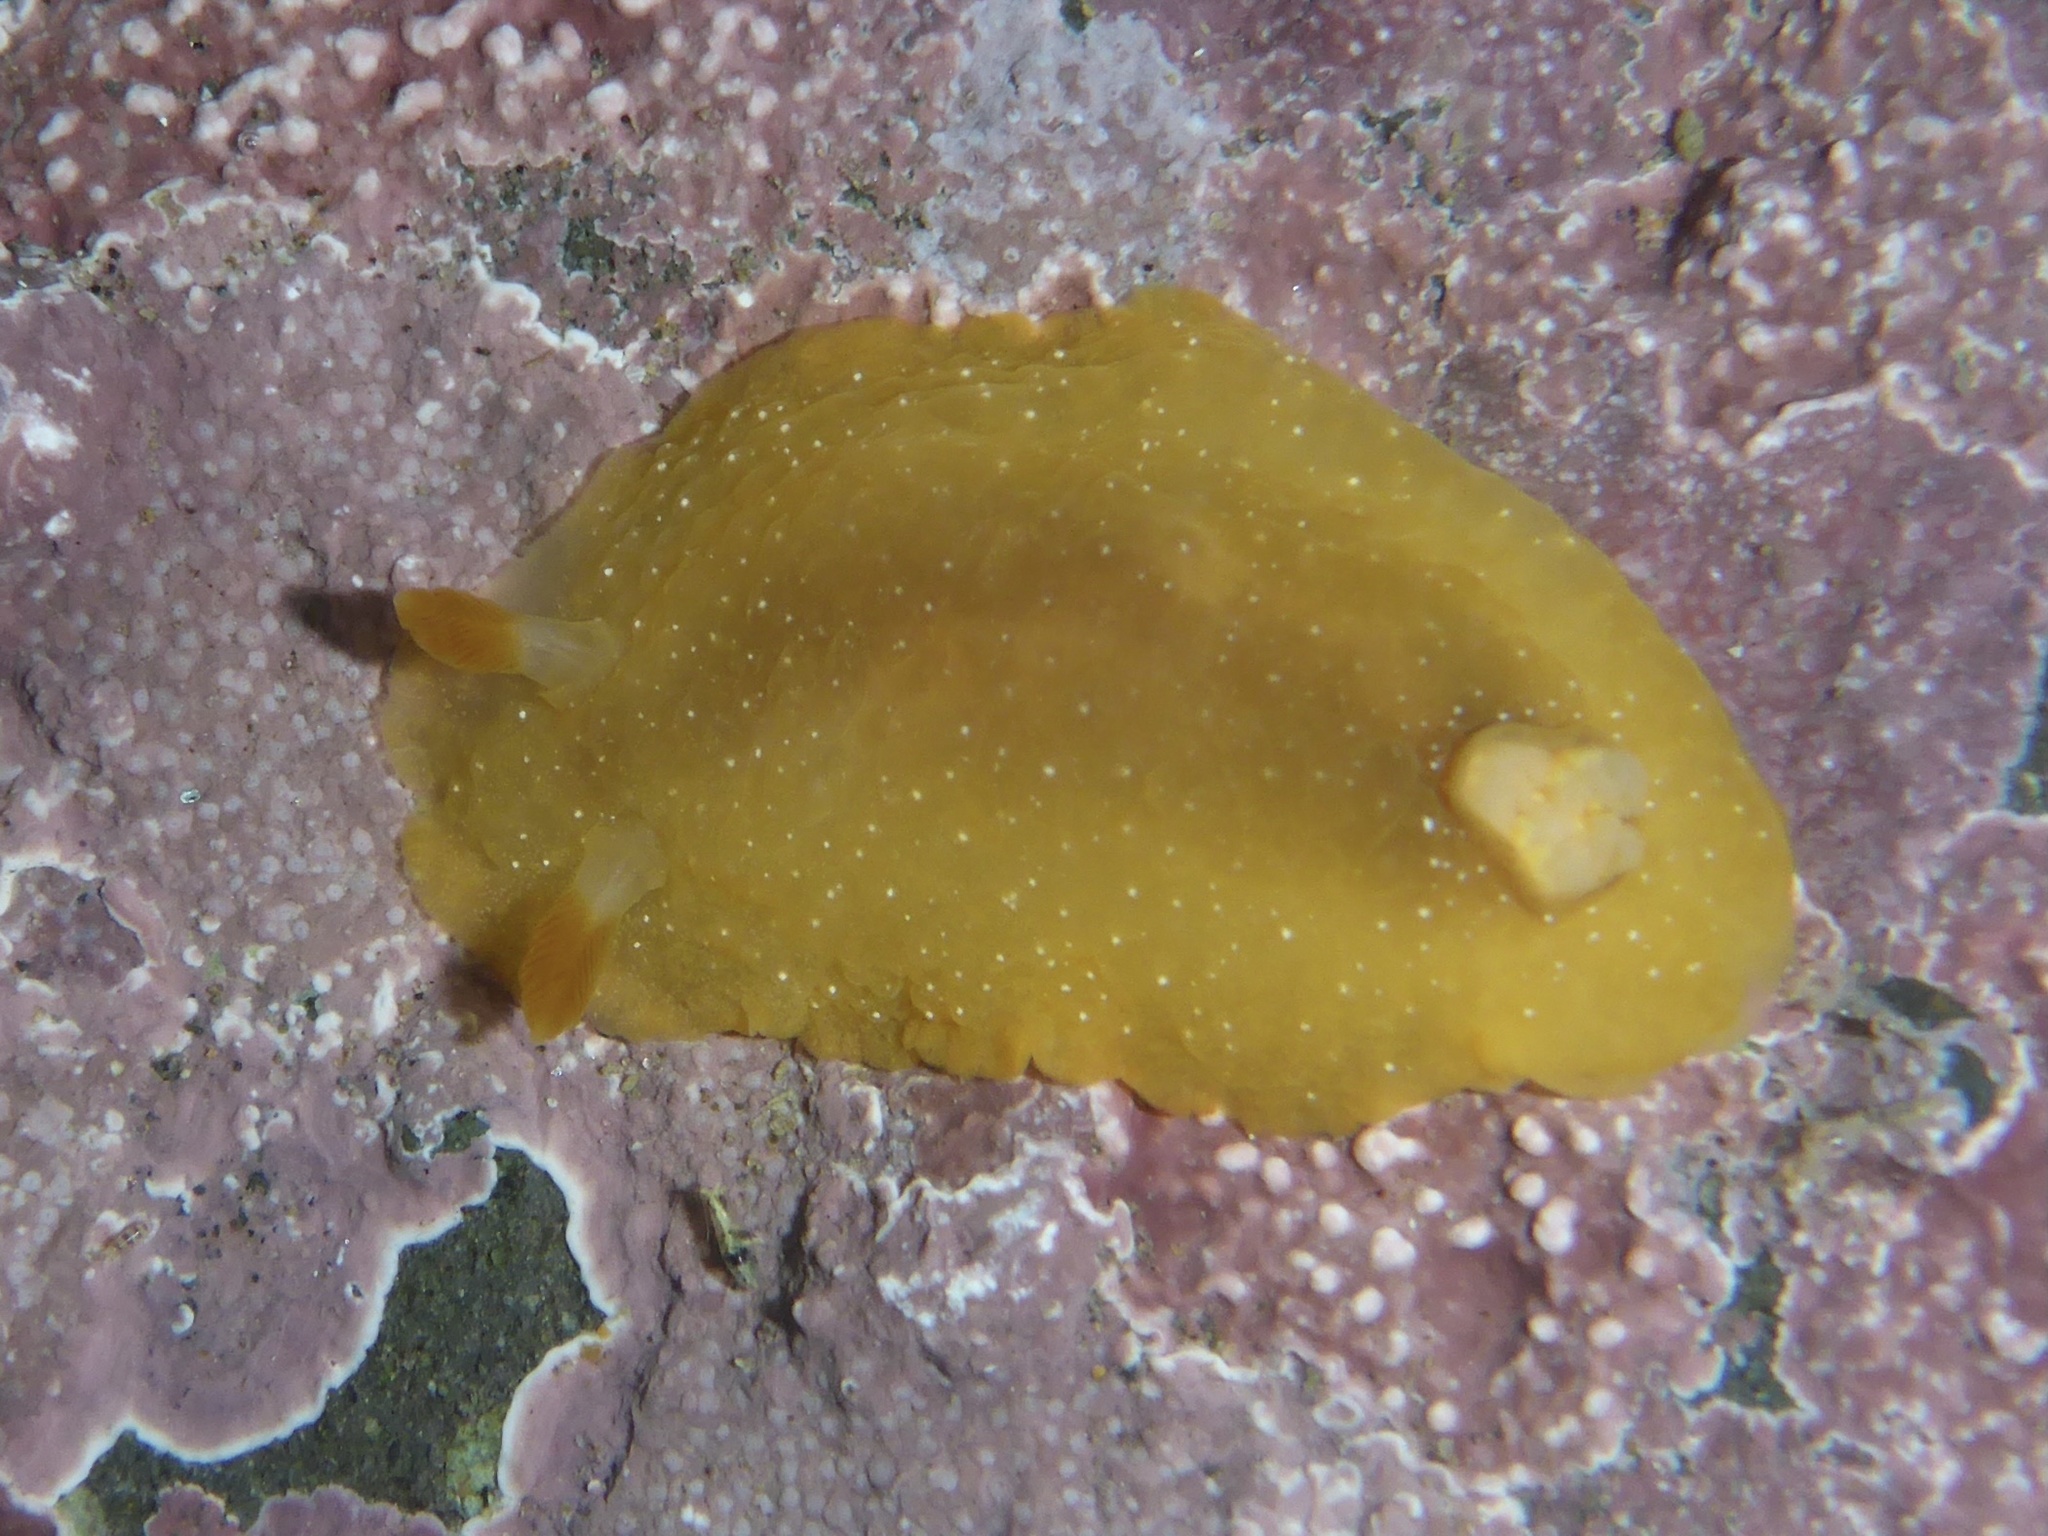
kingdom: Animalia
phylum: Mollusca
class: Gastropoda
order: Nudibranchia
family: Dendrodorididae
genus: Doriopsilla
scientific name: Doriopsilla fulva
